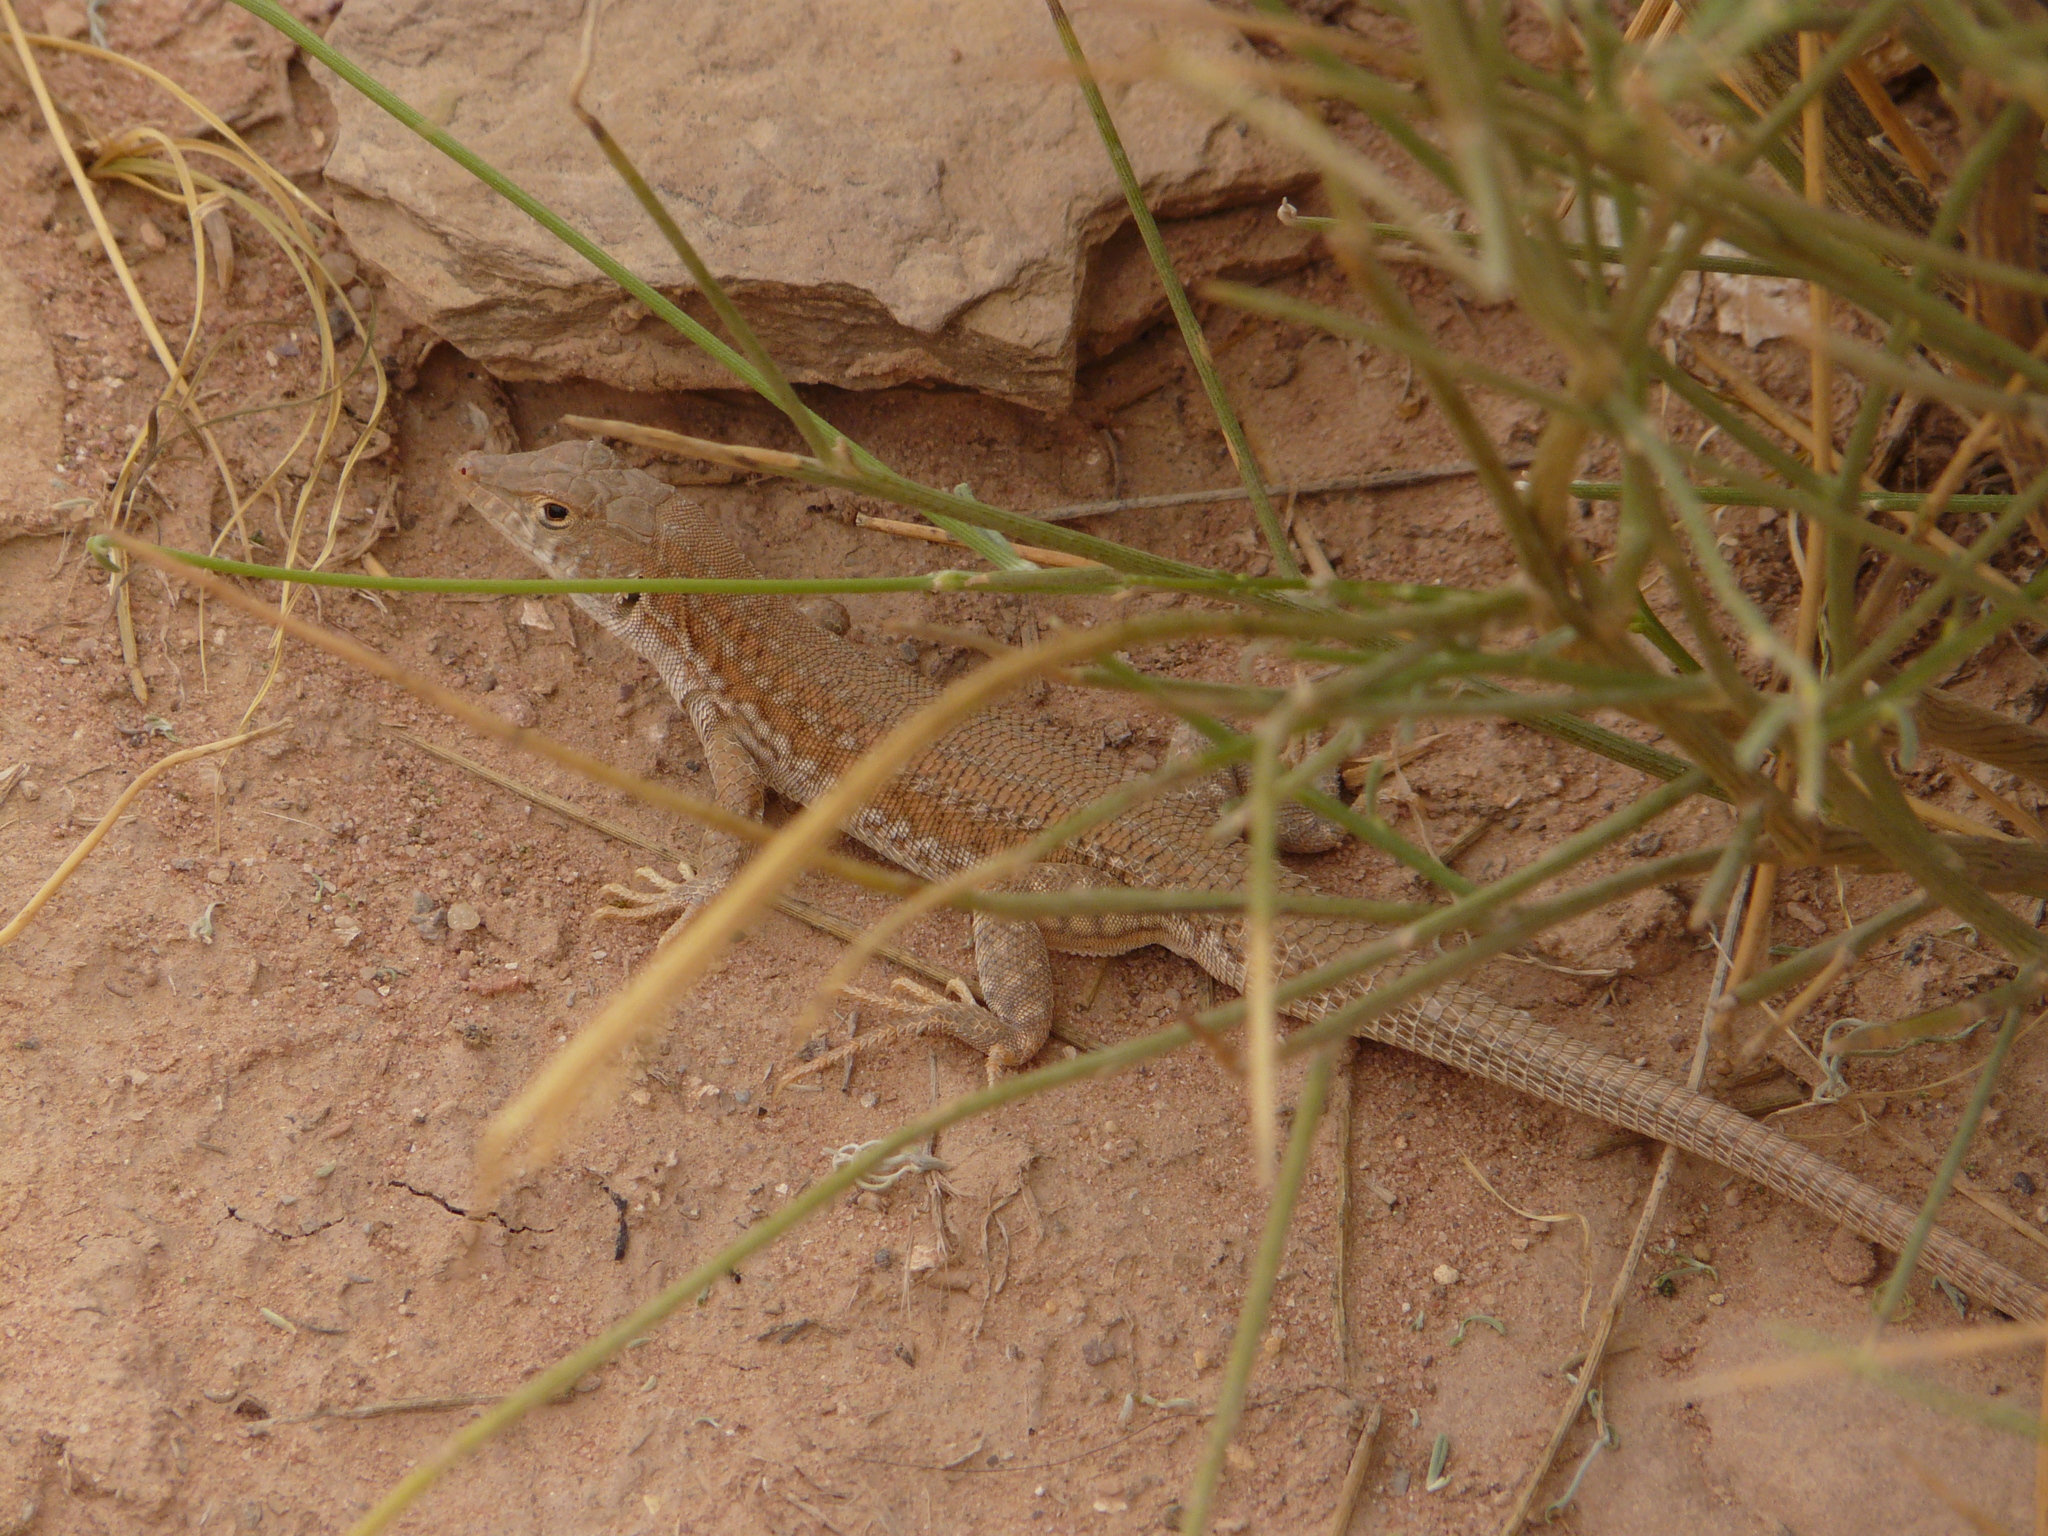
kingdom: Animalia
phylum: Chordata
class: Squamata
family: Lacertidae
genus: Acanthodactylus
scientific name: Acanthodactylus boskianus
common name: Bosc’s fringe-toed lizard
